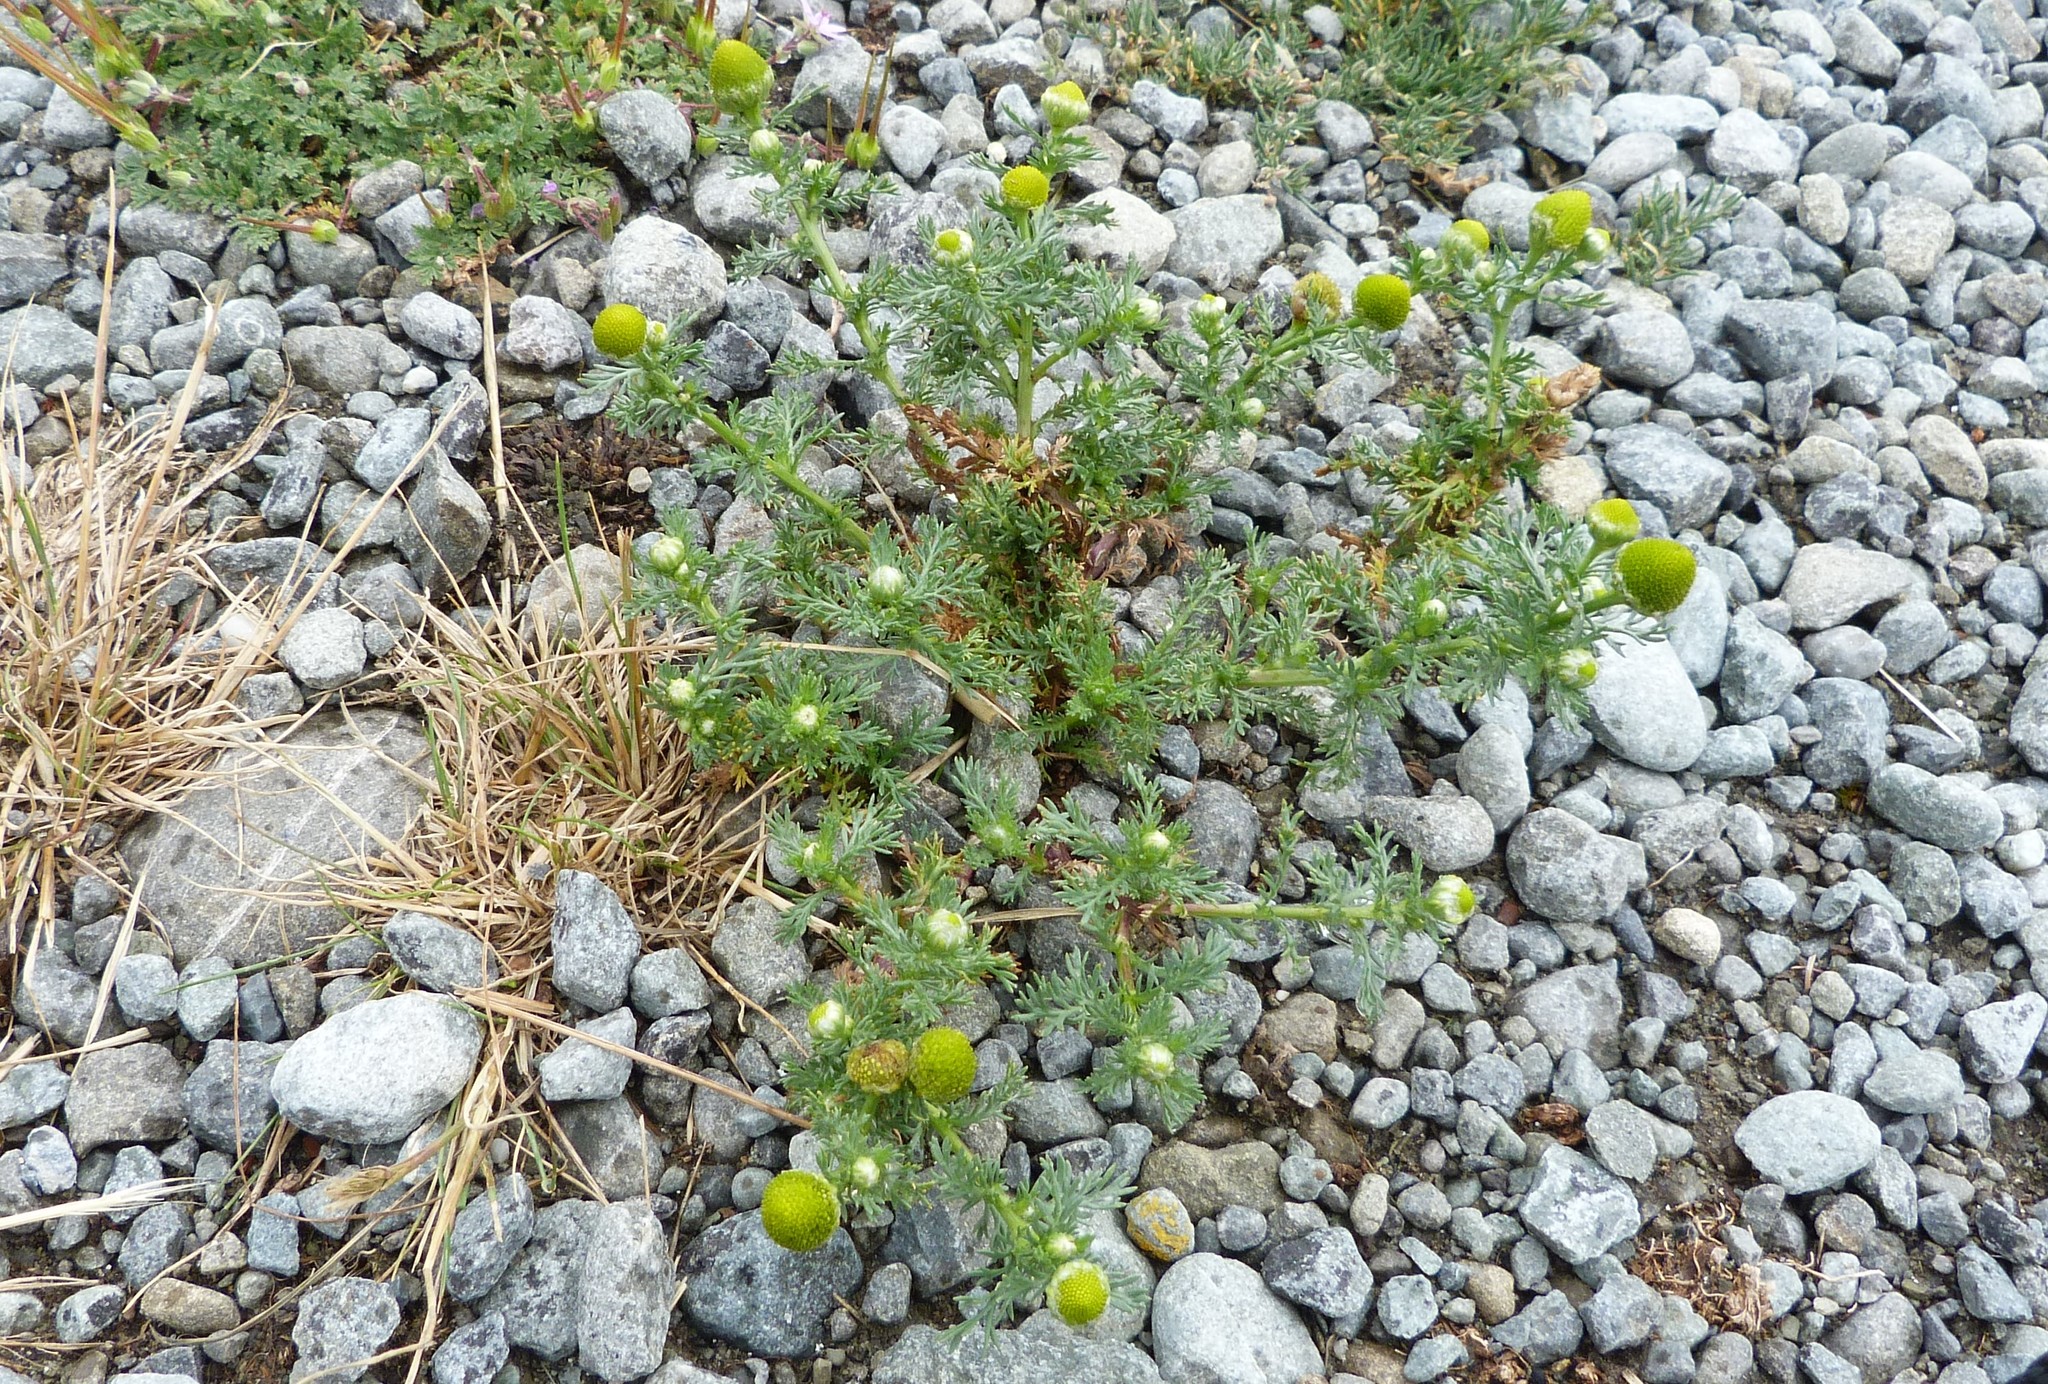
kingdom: Plantae
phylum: Tracheophyta
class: Magnoliopsida
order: Asterales
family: Asteraceae
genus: Matricaria
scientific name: Matricaria discoidea
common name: Disc mayweed
